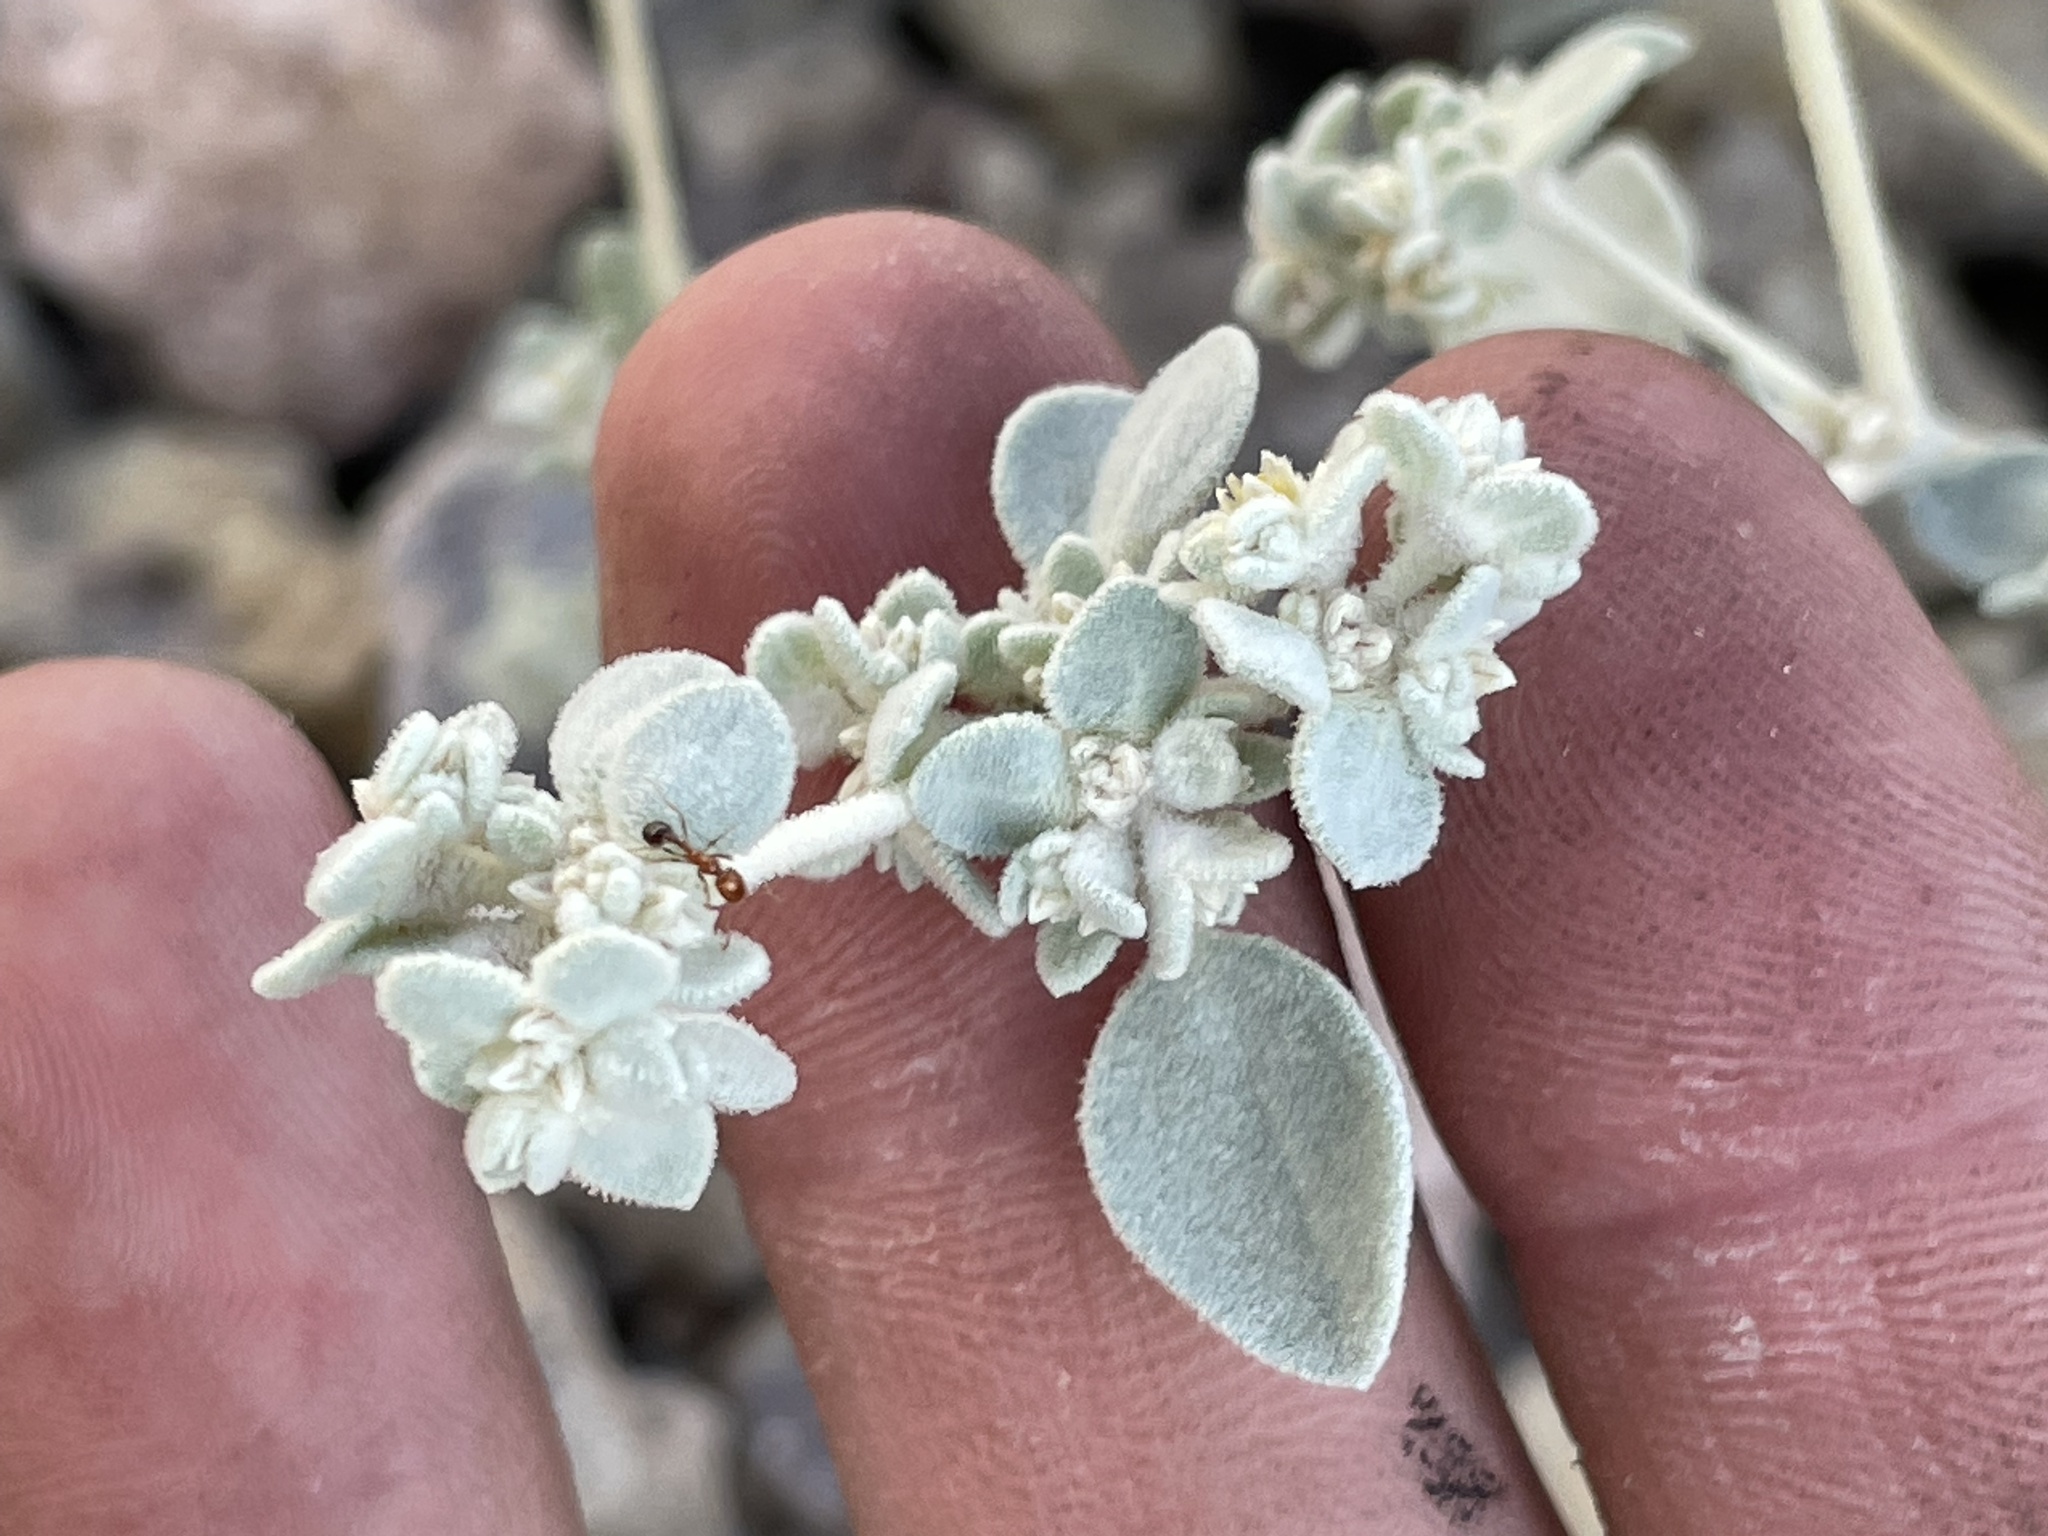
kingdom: Plantae
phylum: Tracheophyta
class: Magnoliopsida
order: Caryophyllales
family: Amaranthaceae
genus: Tidestromia
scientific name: Tidestromia suffruticosa
